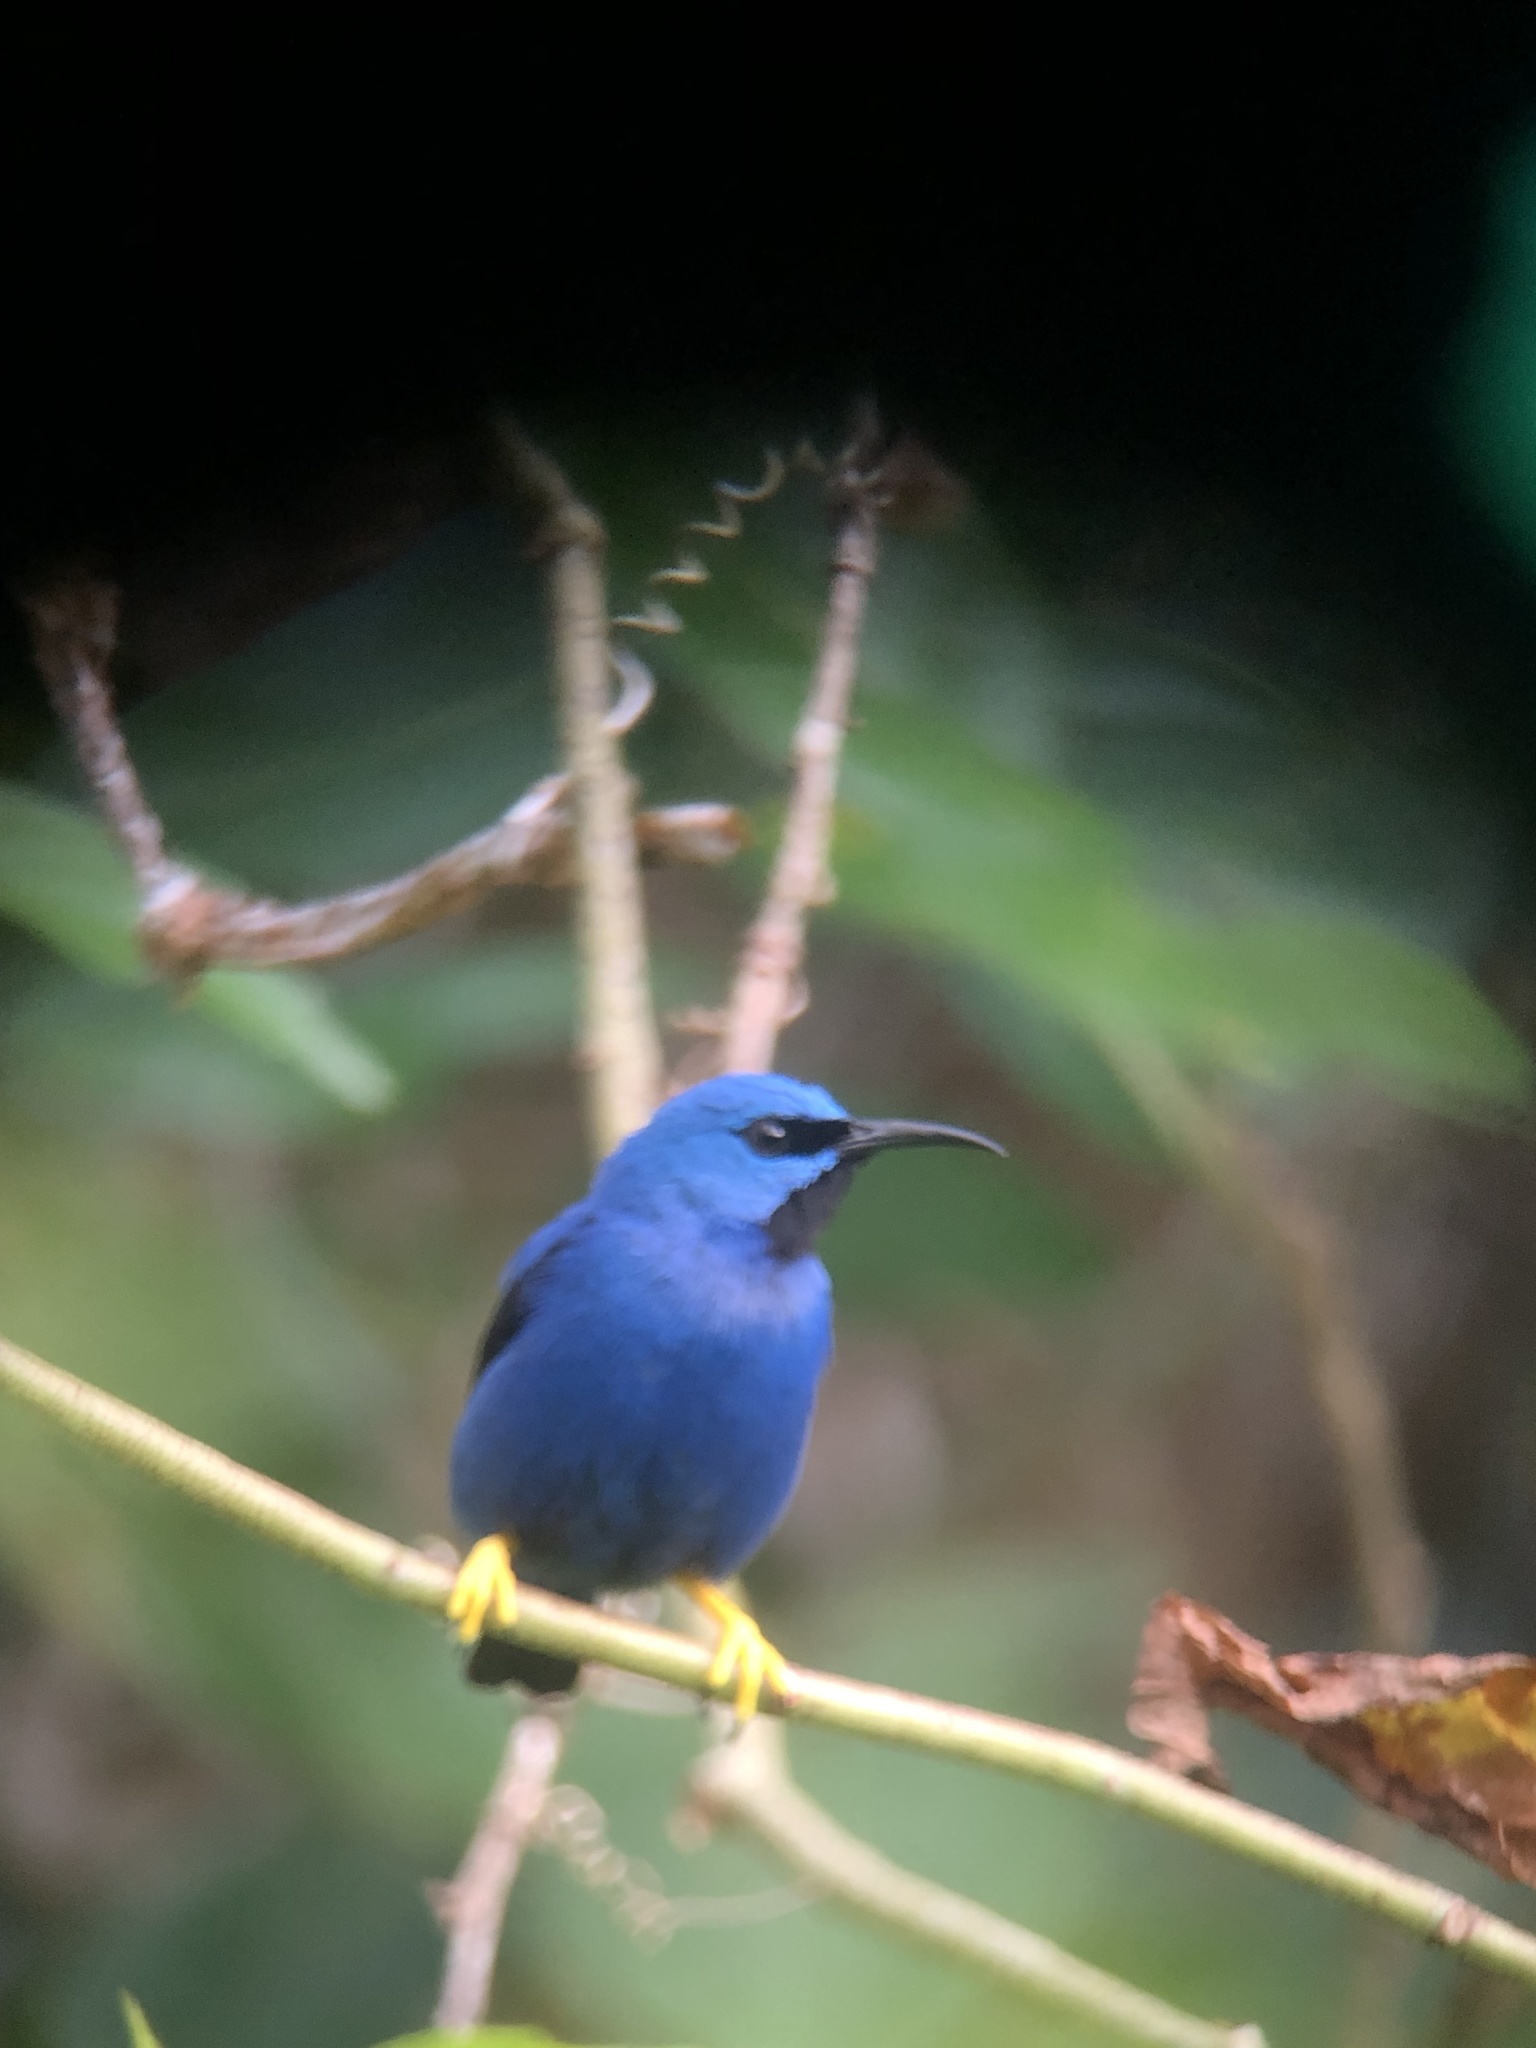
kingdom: Animalia
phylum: Chordata
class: Aves
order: Passeriformes
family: Thraupidae
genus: Cyanerpes
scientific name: Cyanerpes lucidus
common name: Shining honeycreeper
